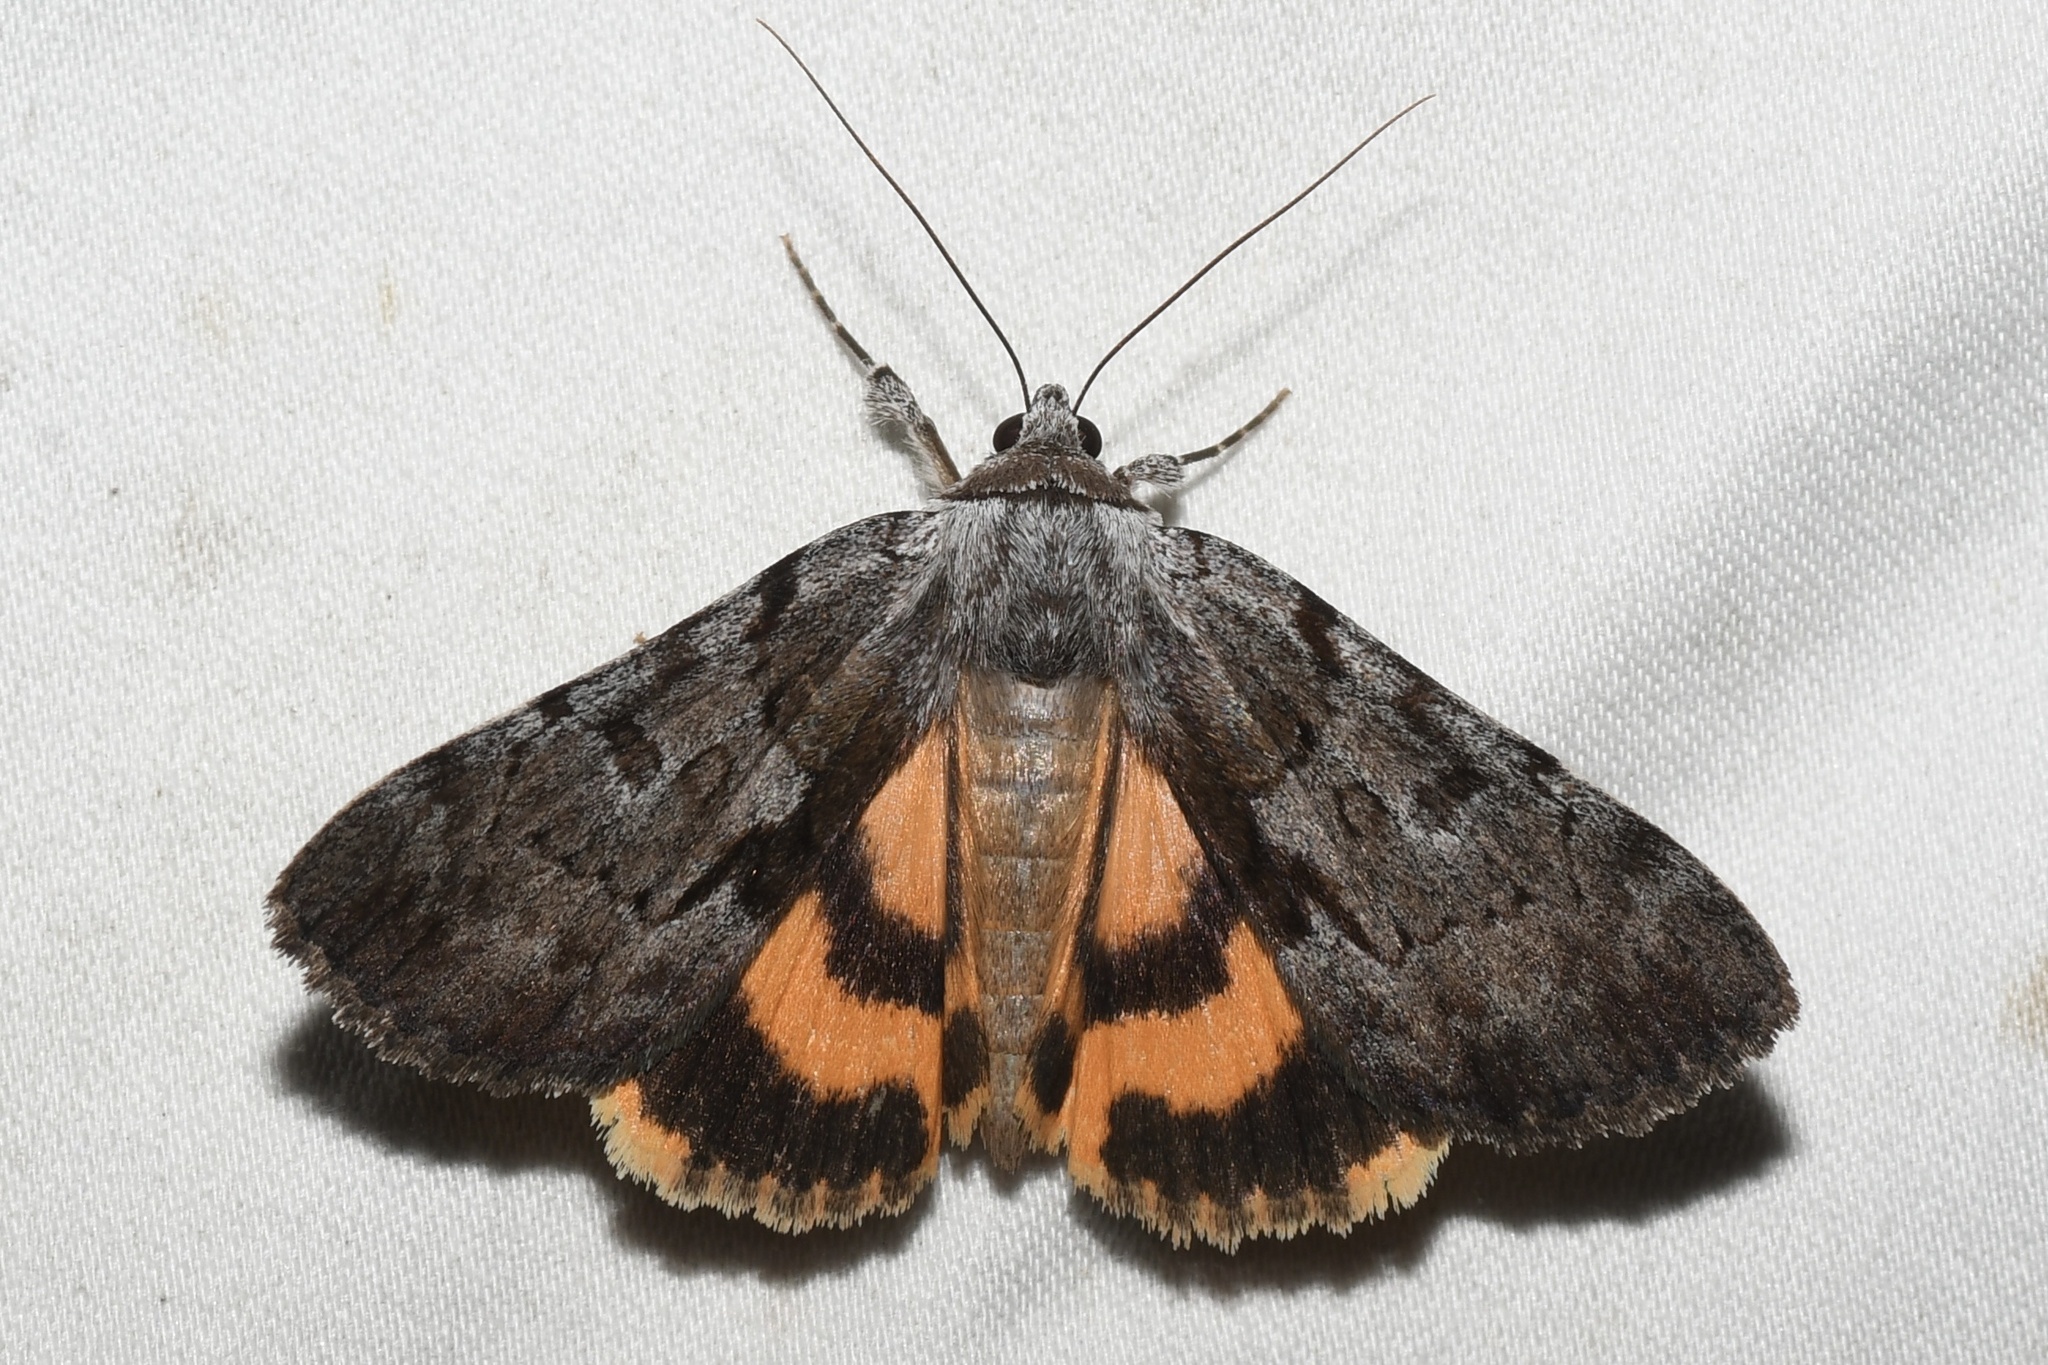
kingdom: Animalia
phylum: Arthropoda
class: Insecta
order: Lepidoptera
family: Erebidae
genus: Catocala
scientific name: Catocala sordida
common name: Sordid underwing
